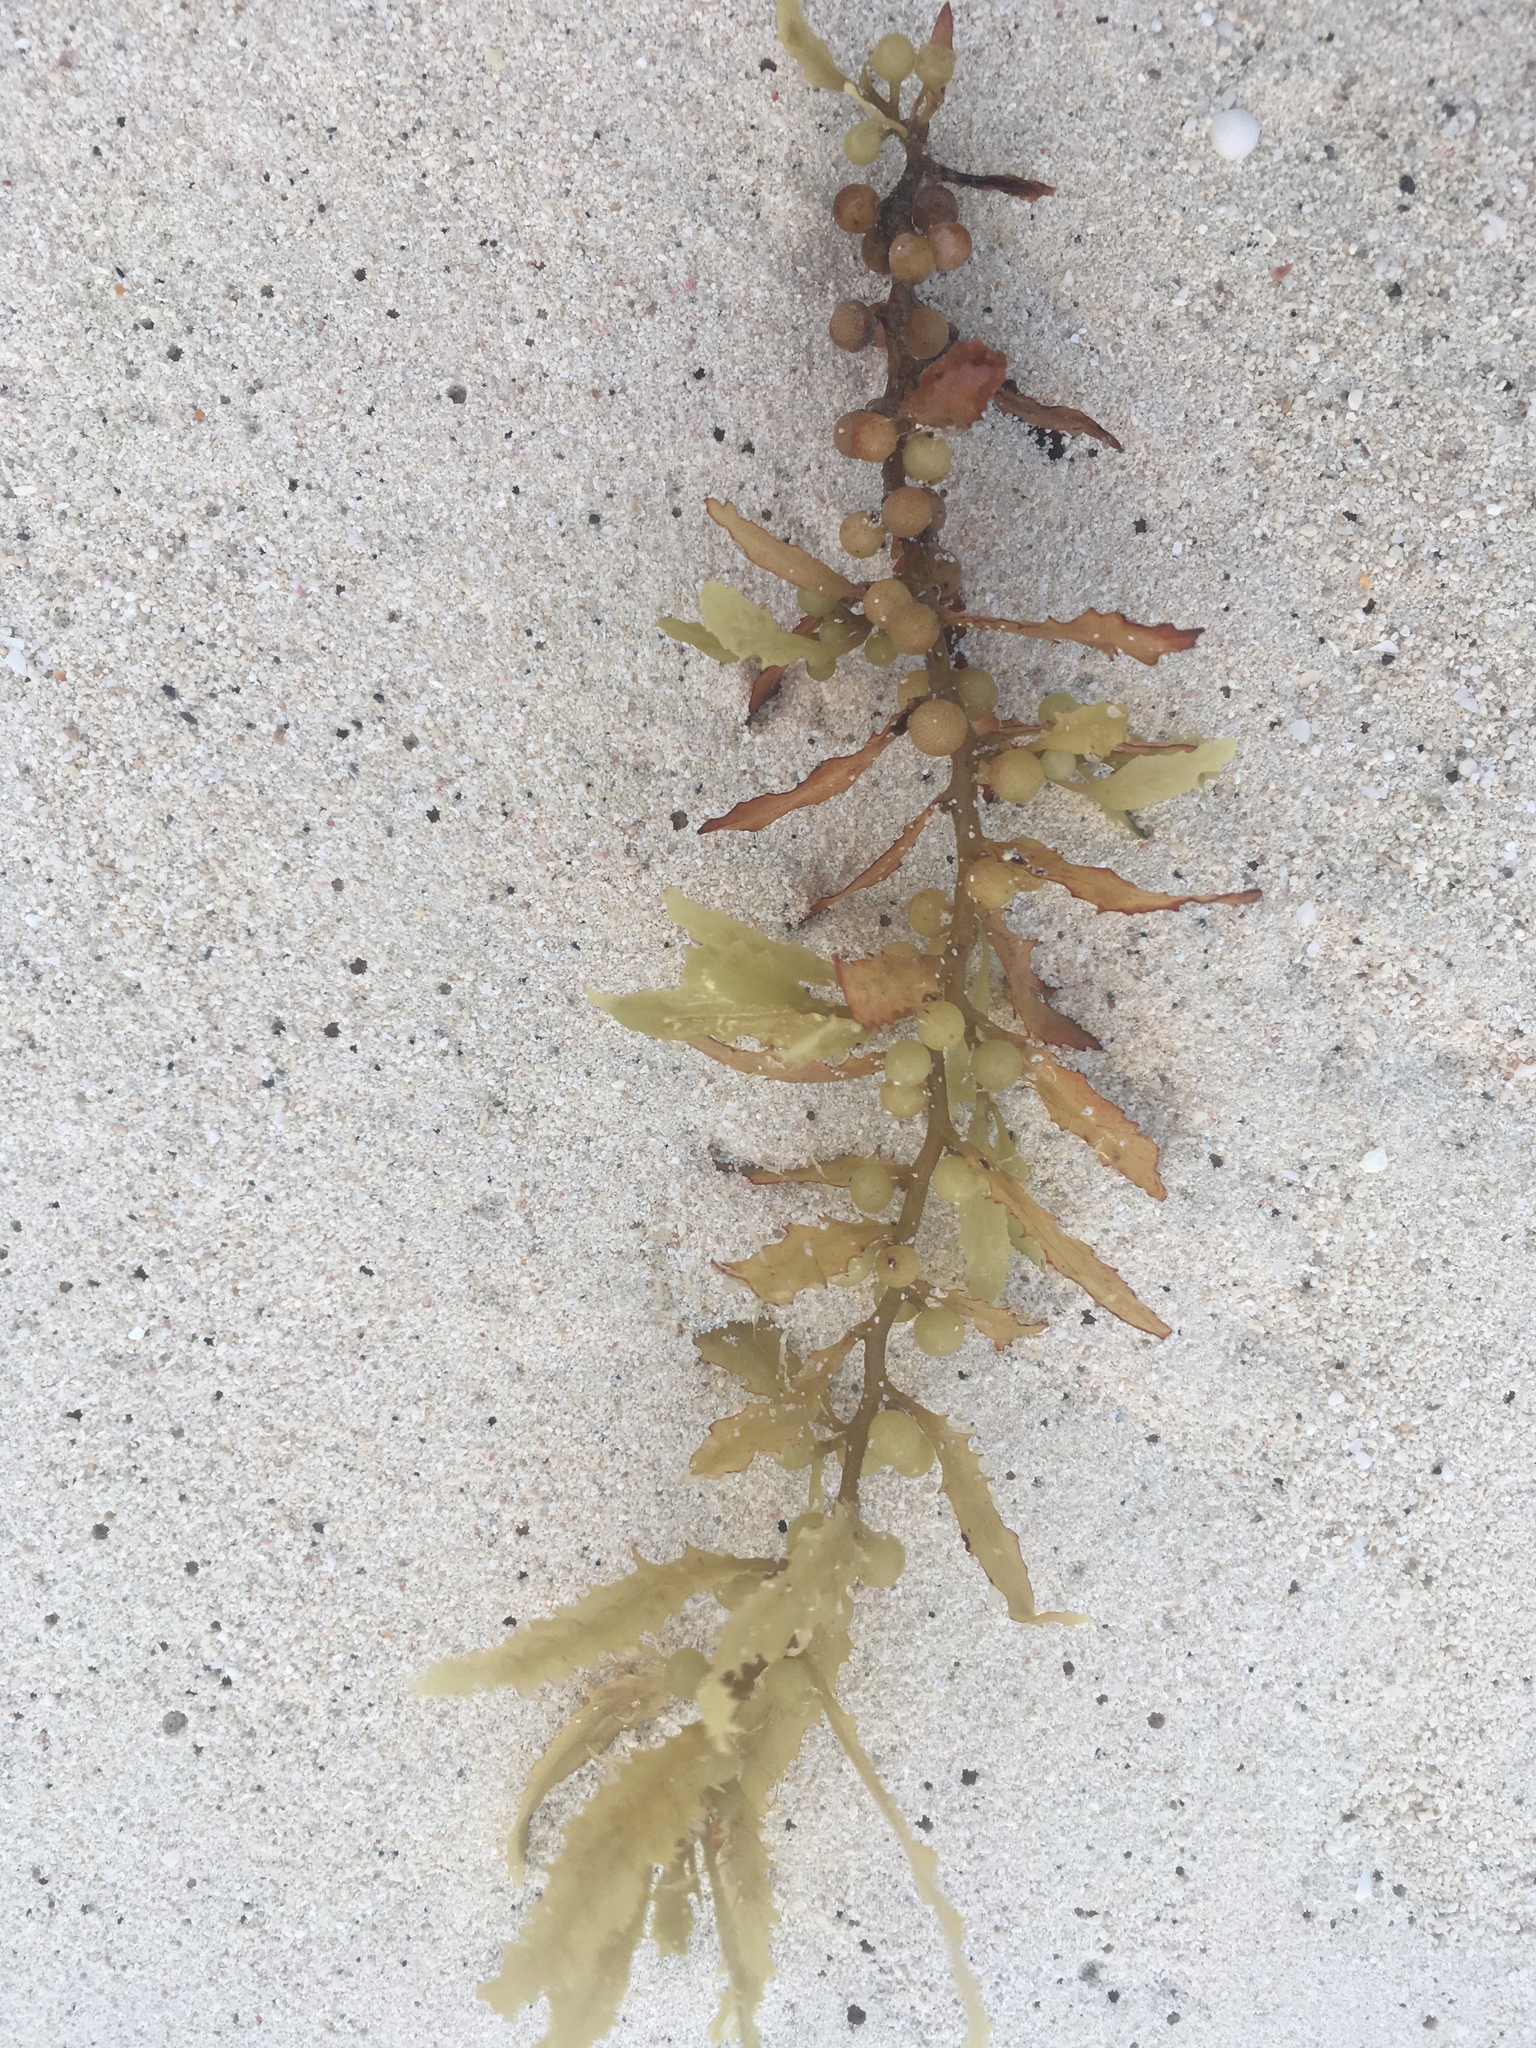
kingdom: Chromista
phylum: Ochrophyta
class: Phaeophyceae
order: Fucales
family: Sargassaceae
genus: Sargassum
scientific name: Sargassum fluitans
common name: Sargassum seaweed
